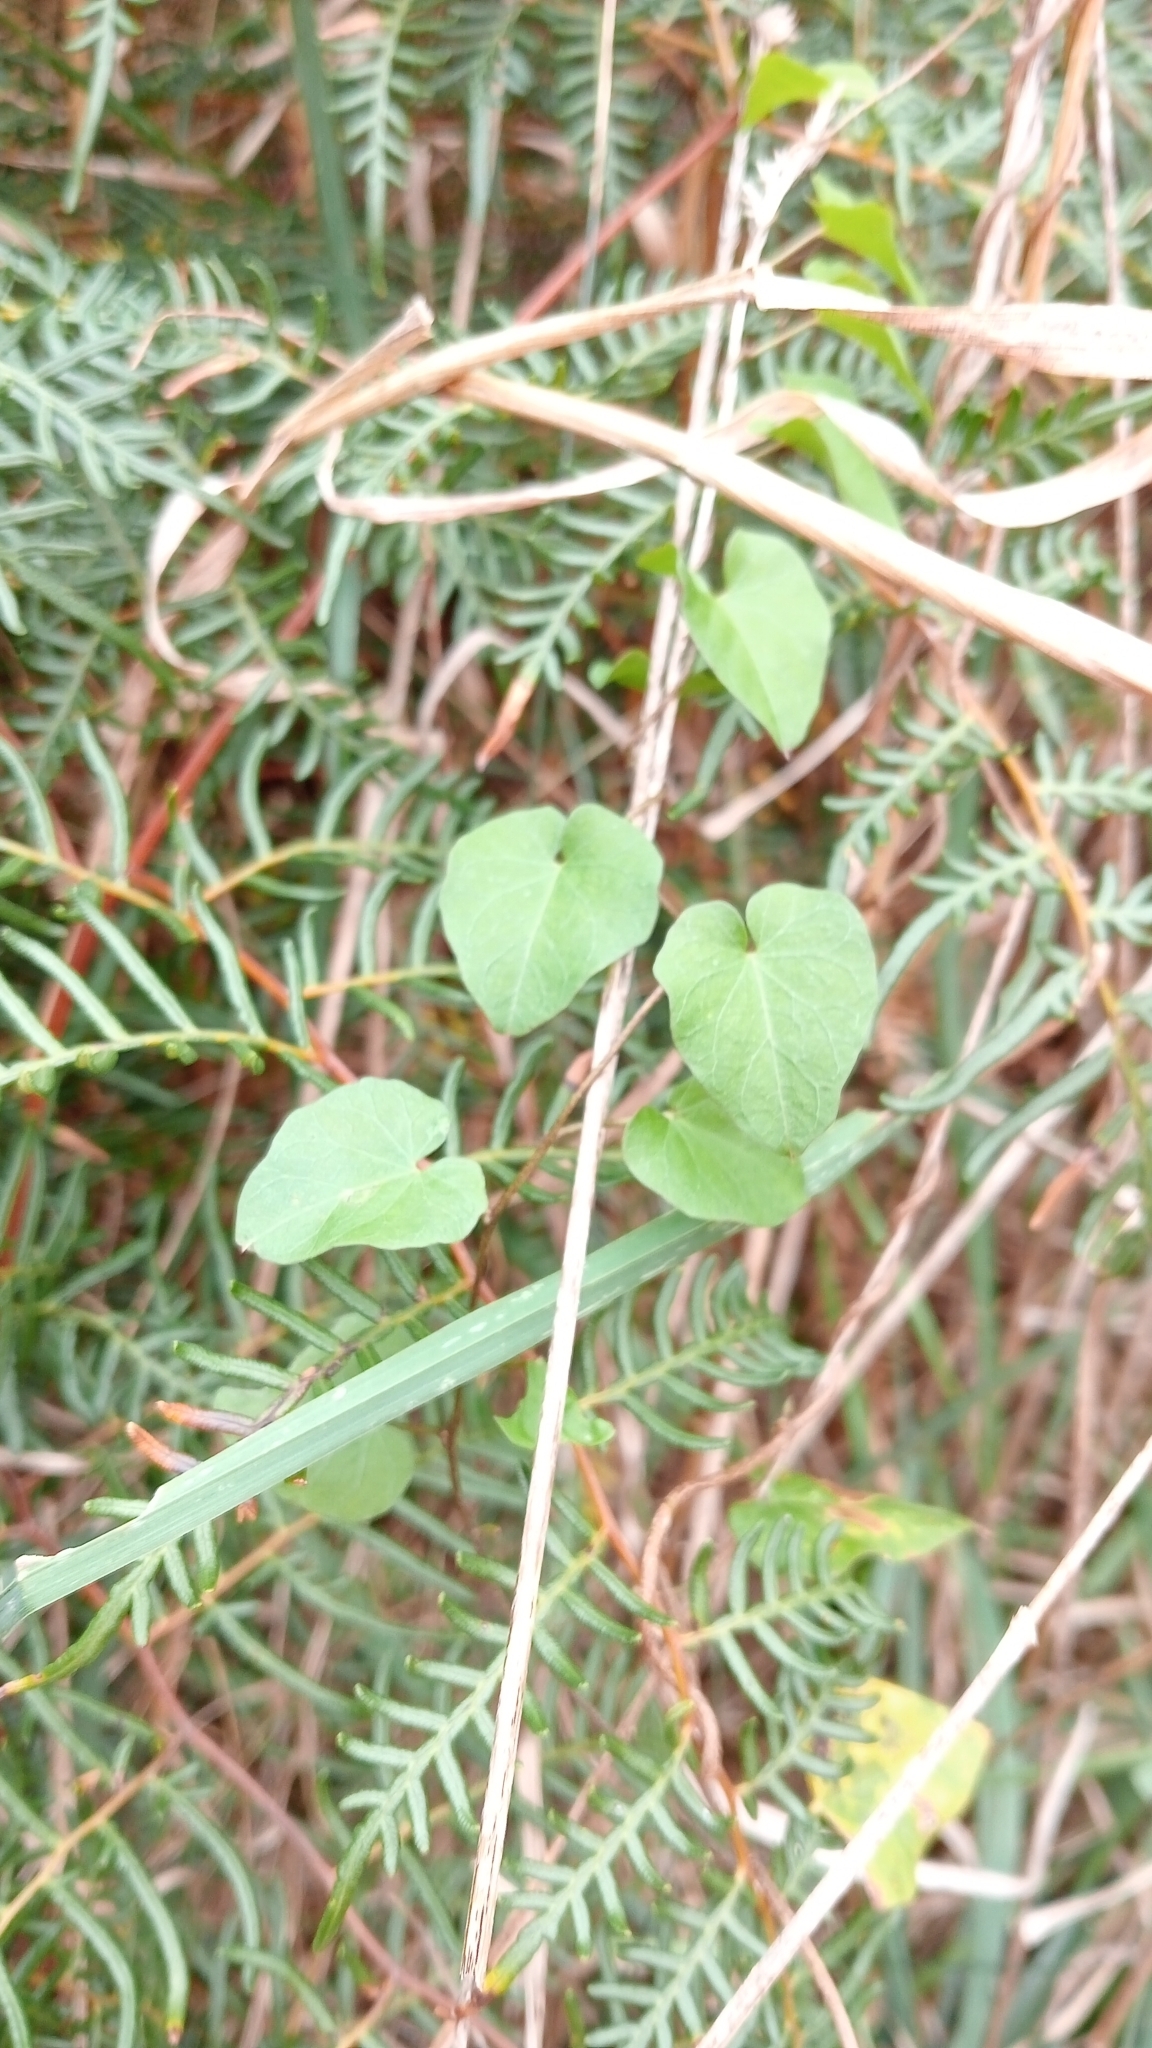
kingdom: Plantae
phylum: Tracheophyta
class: Magnoliopsida
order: Solanales
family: Convolvulaceae
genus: Calystegia
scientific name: Calystegia tuguriorum
